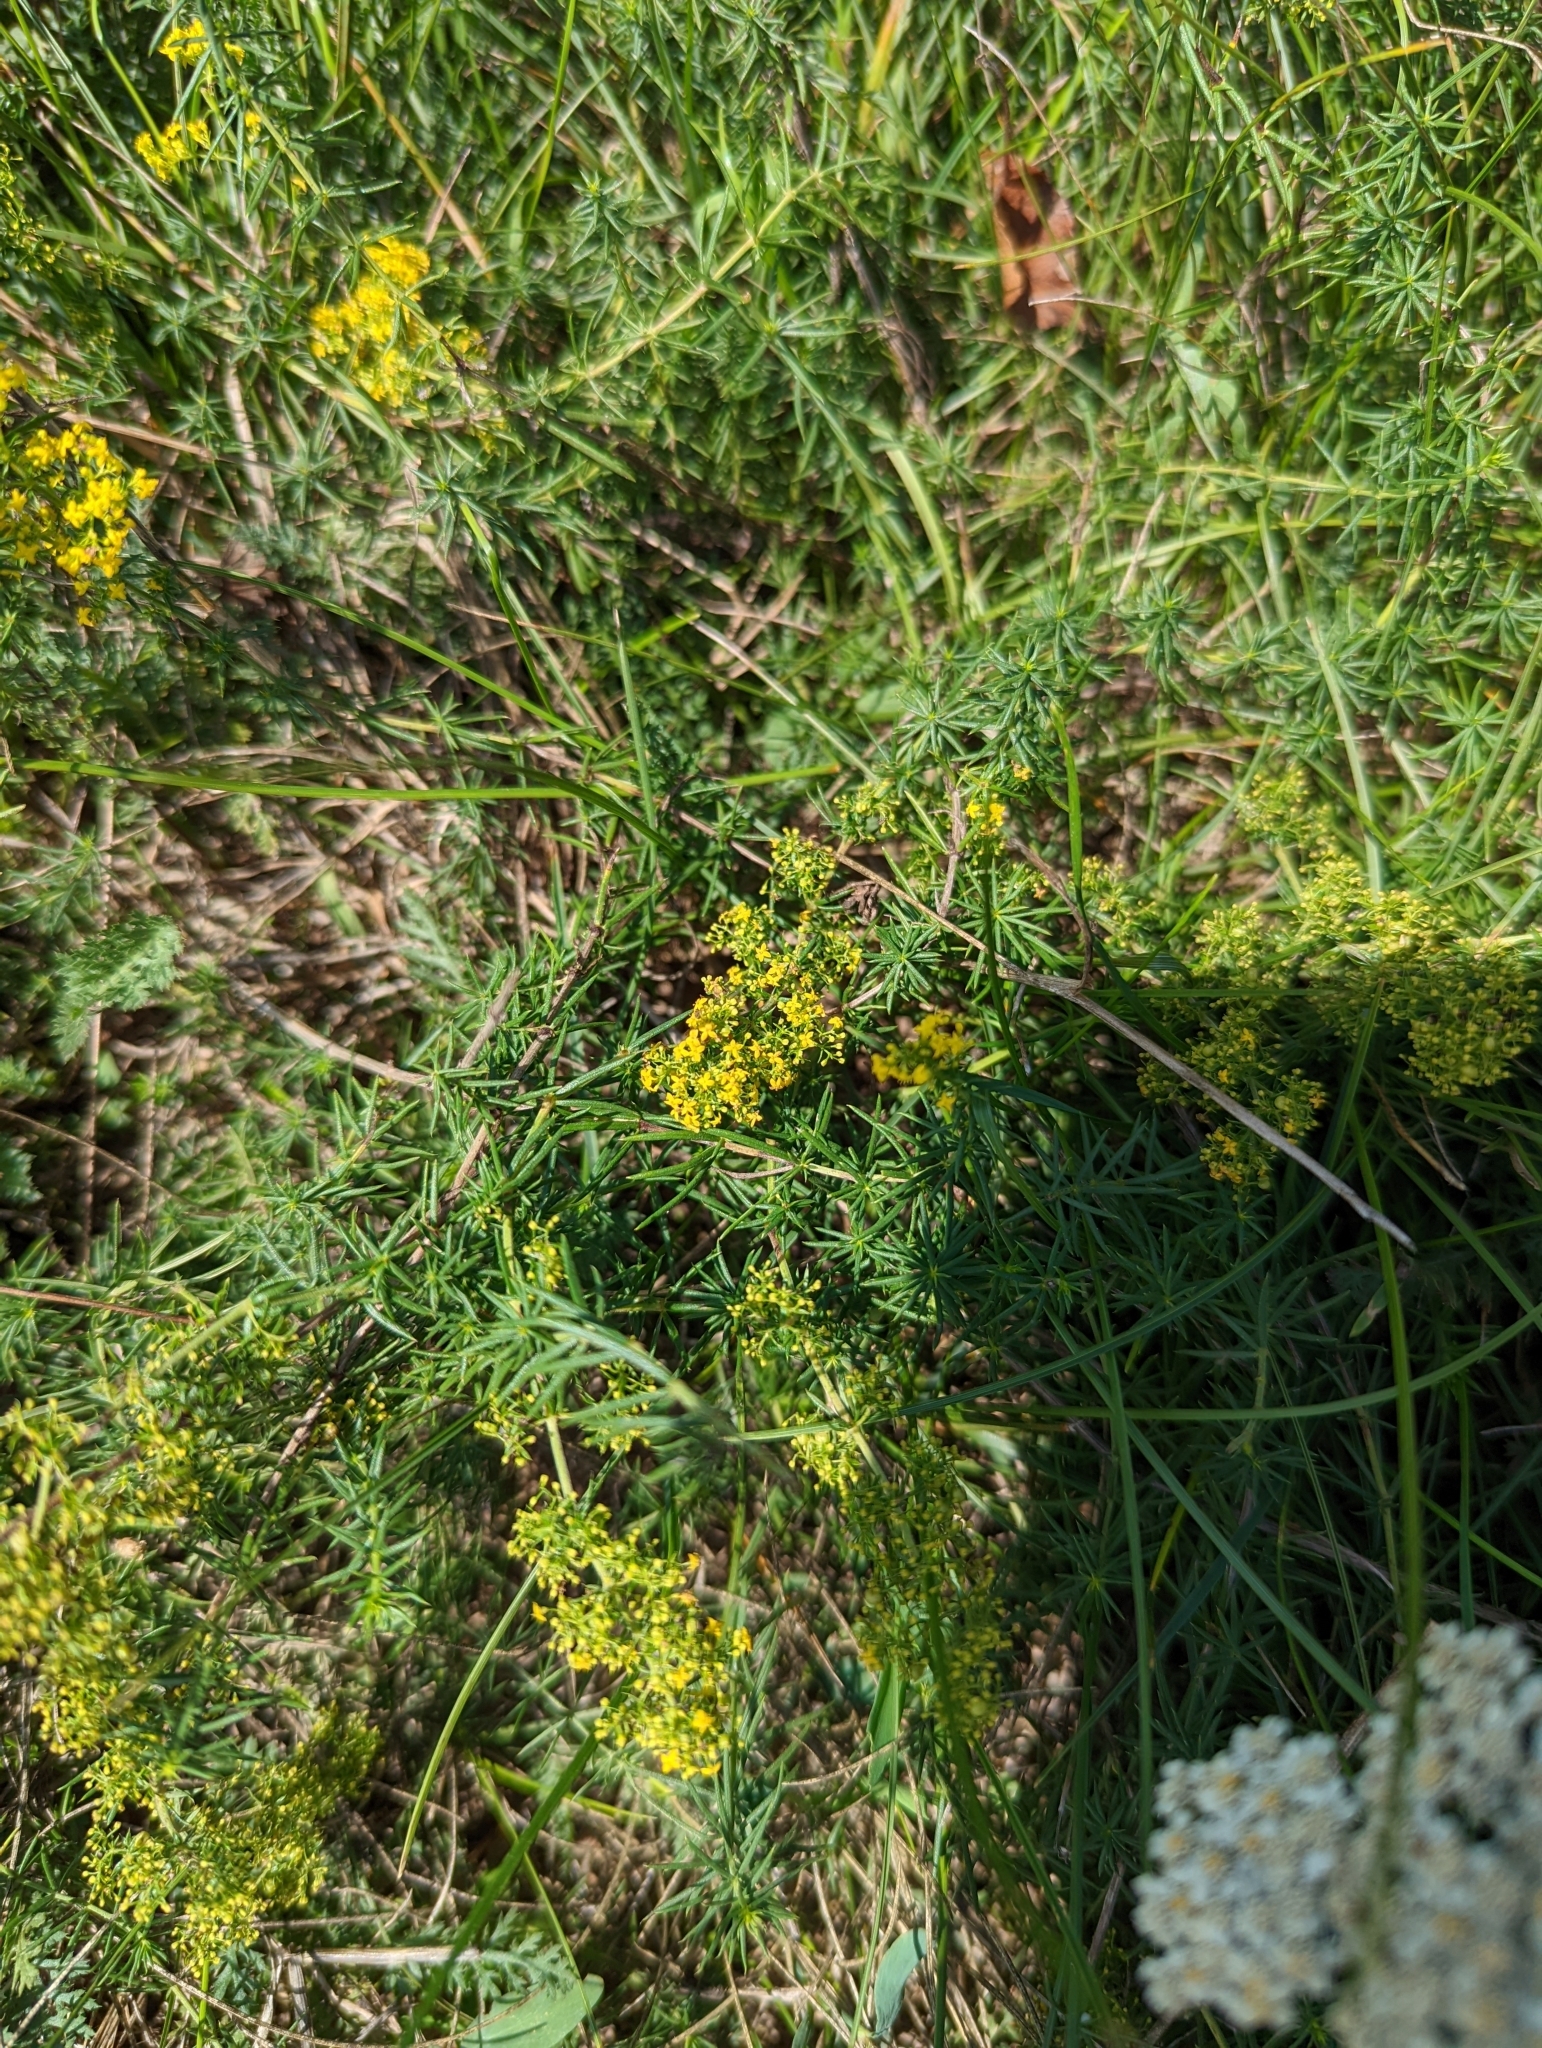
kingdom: Plantae
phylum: Tracheophyta
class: Magnoliopsida
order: Gentianales
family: Rubiaceae
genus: Galium
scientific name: Galium verum
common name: Lady's bedstraw
